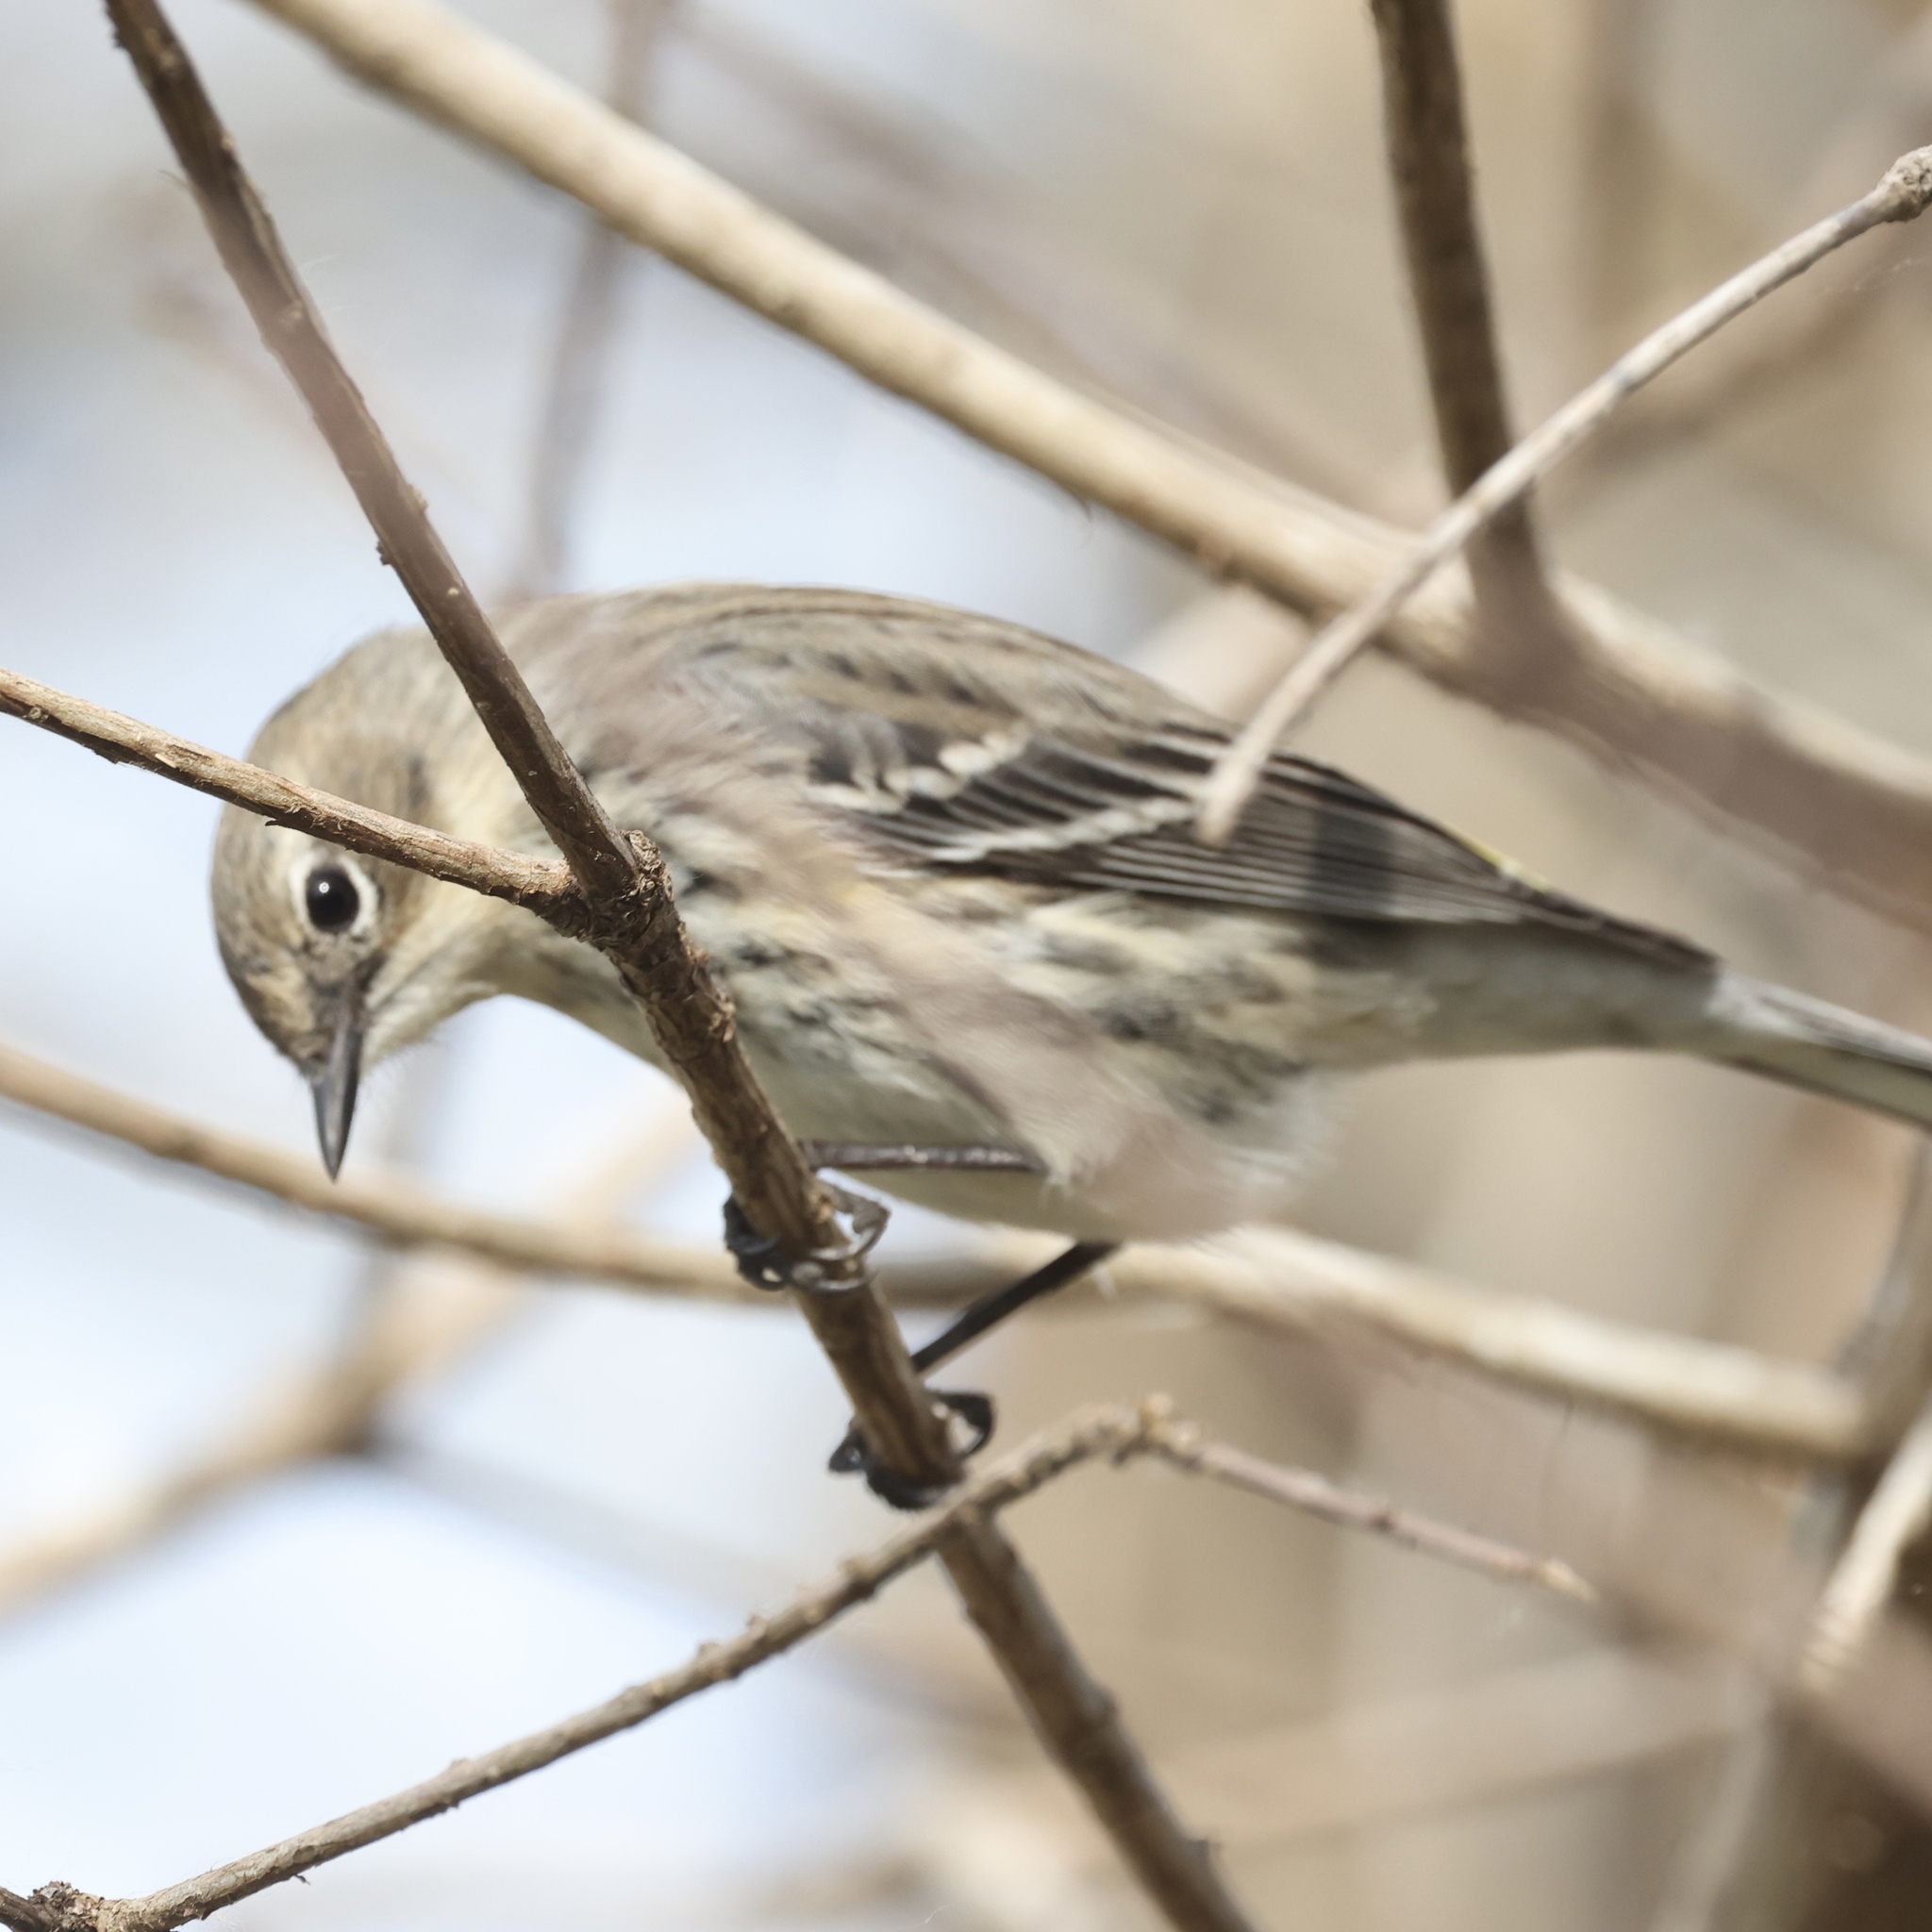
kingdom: Animalia
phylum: Chordata
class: Aves
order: Passeriformes
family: Parulidae
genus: Setophaga
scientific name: Setophaga coronata
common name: Myrtle warbler
